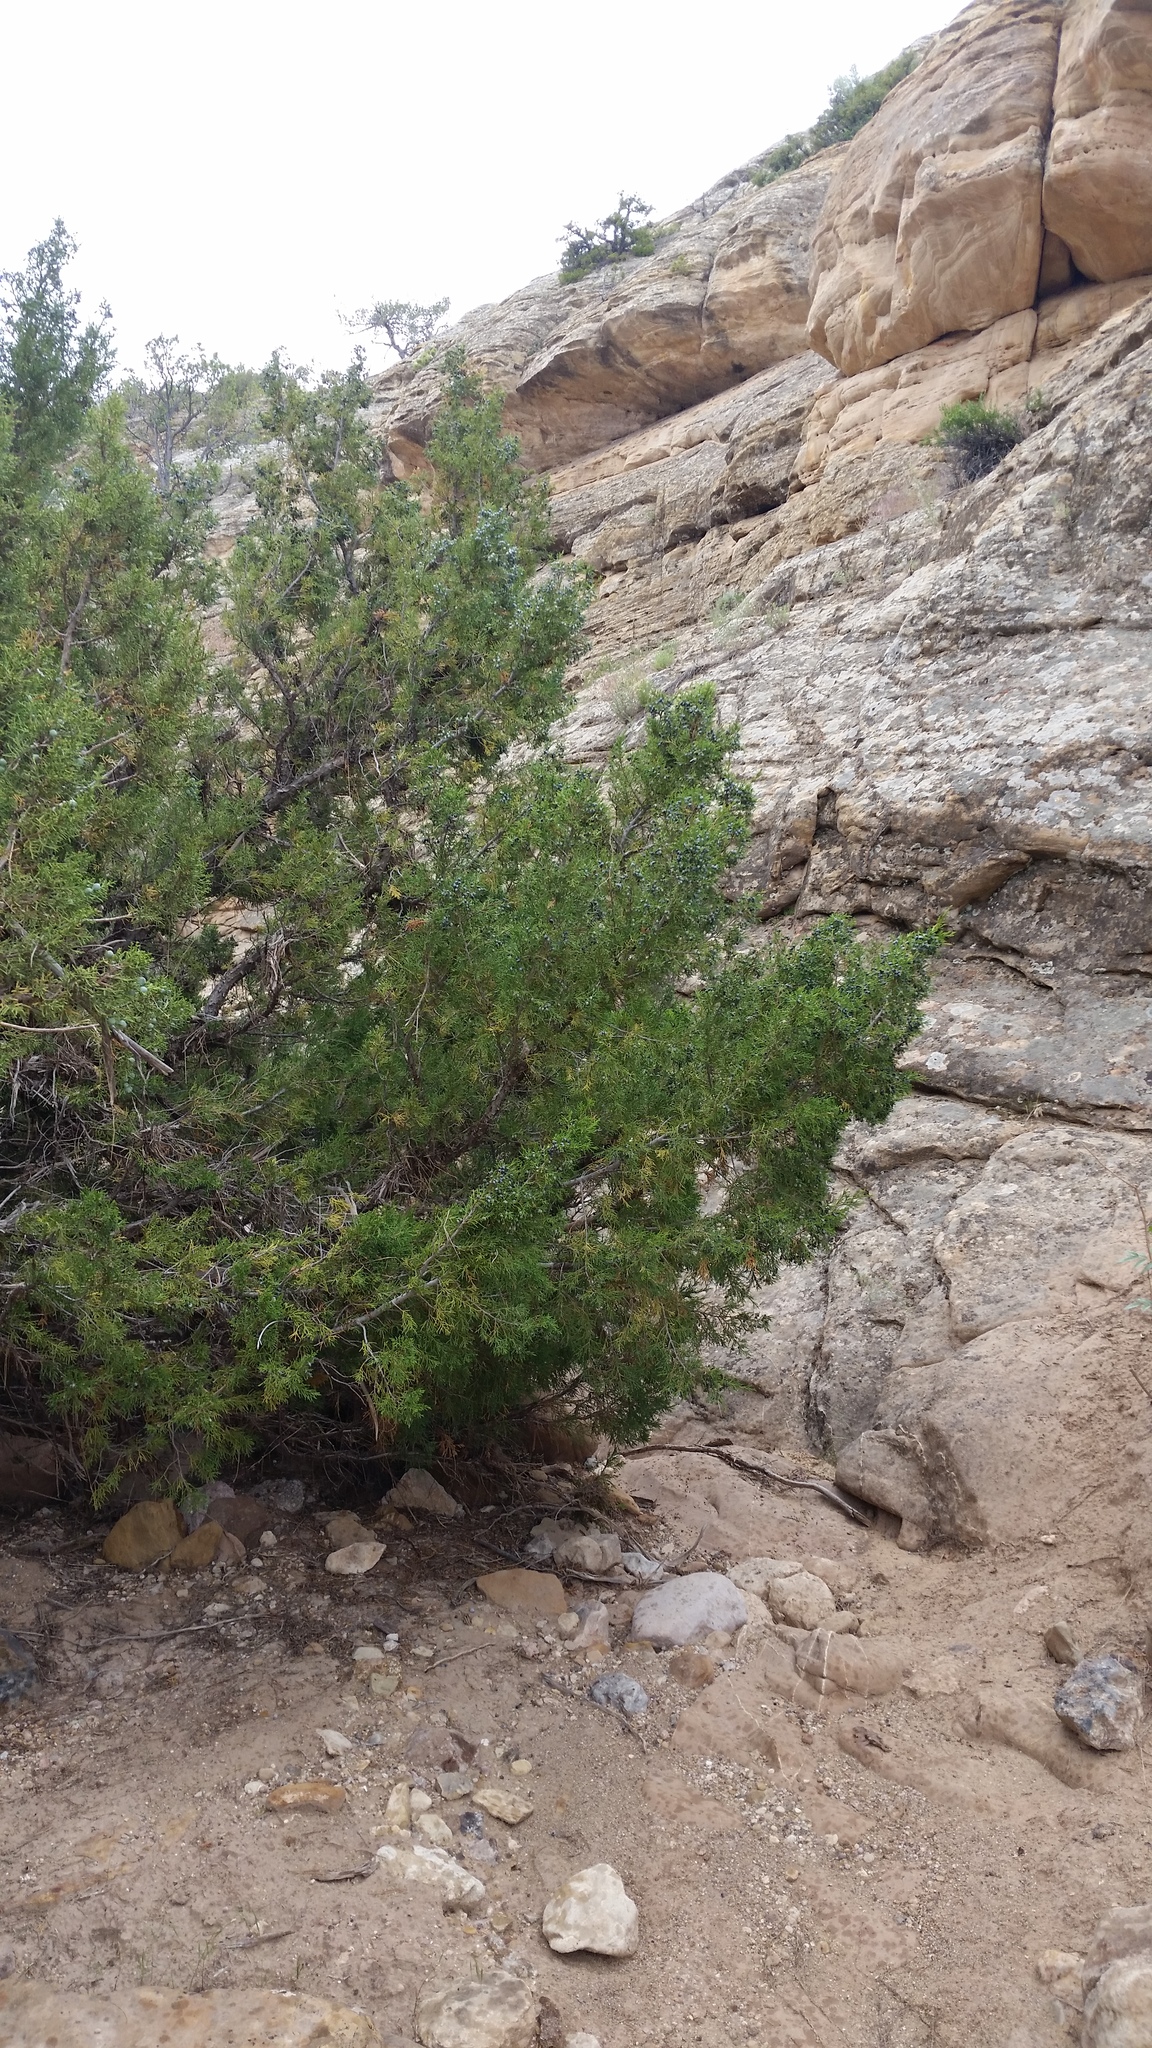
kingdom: Plantae
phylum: Tracheophyta
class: Pinopsida
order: Pinales
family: Cupressaceae
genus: Juniperus
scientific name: Juniperus scopulorum
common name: Rocky mountain juniper
